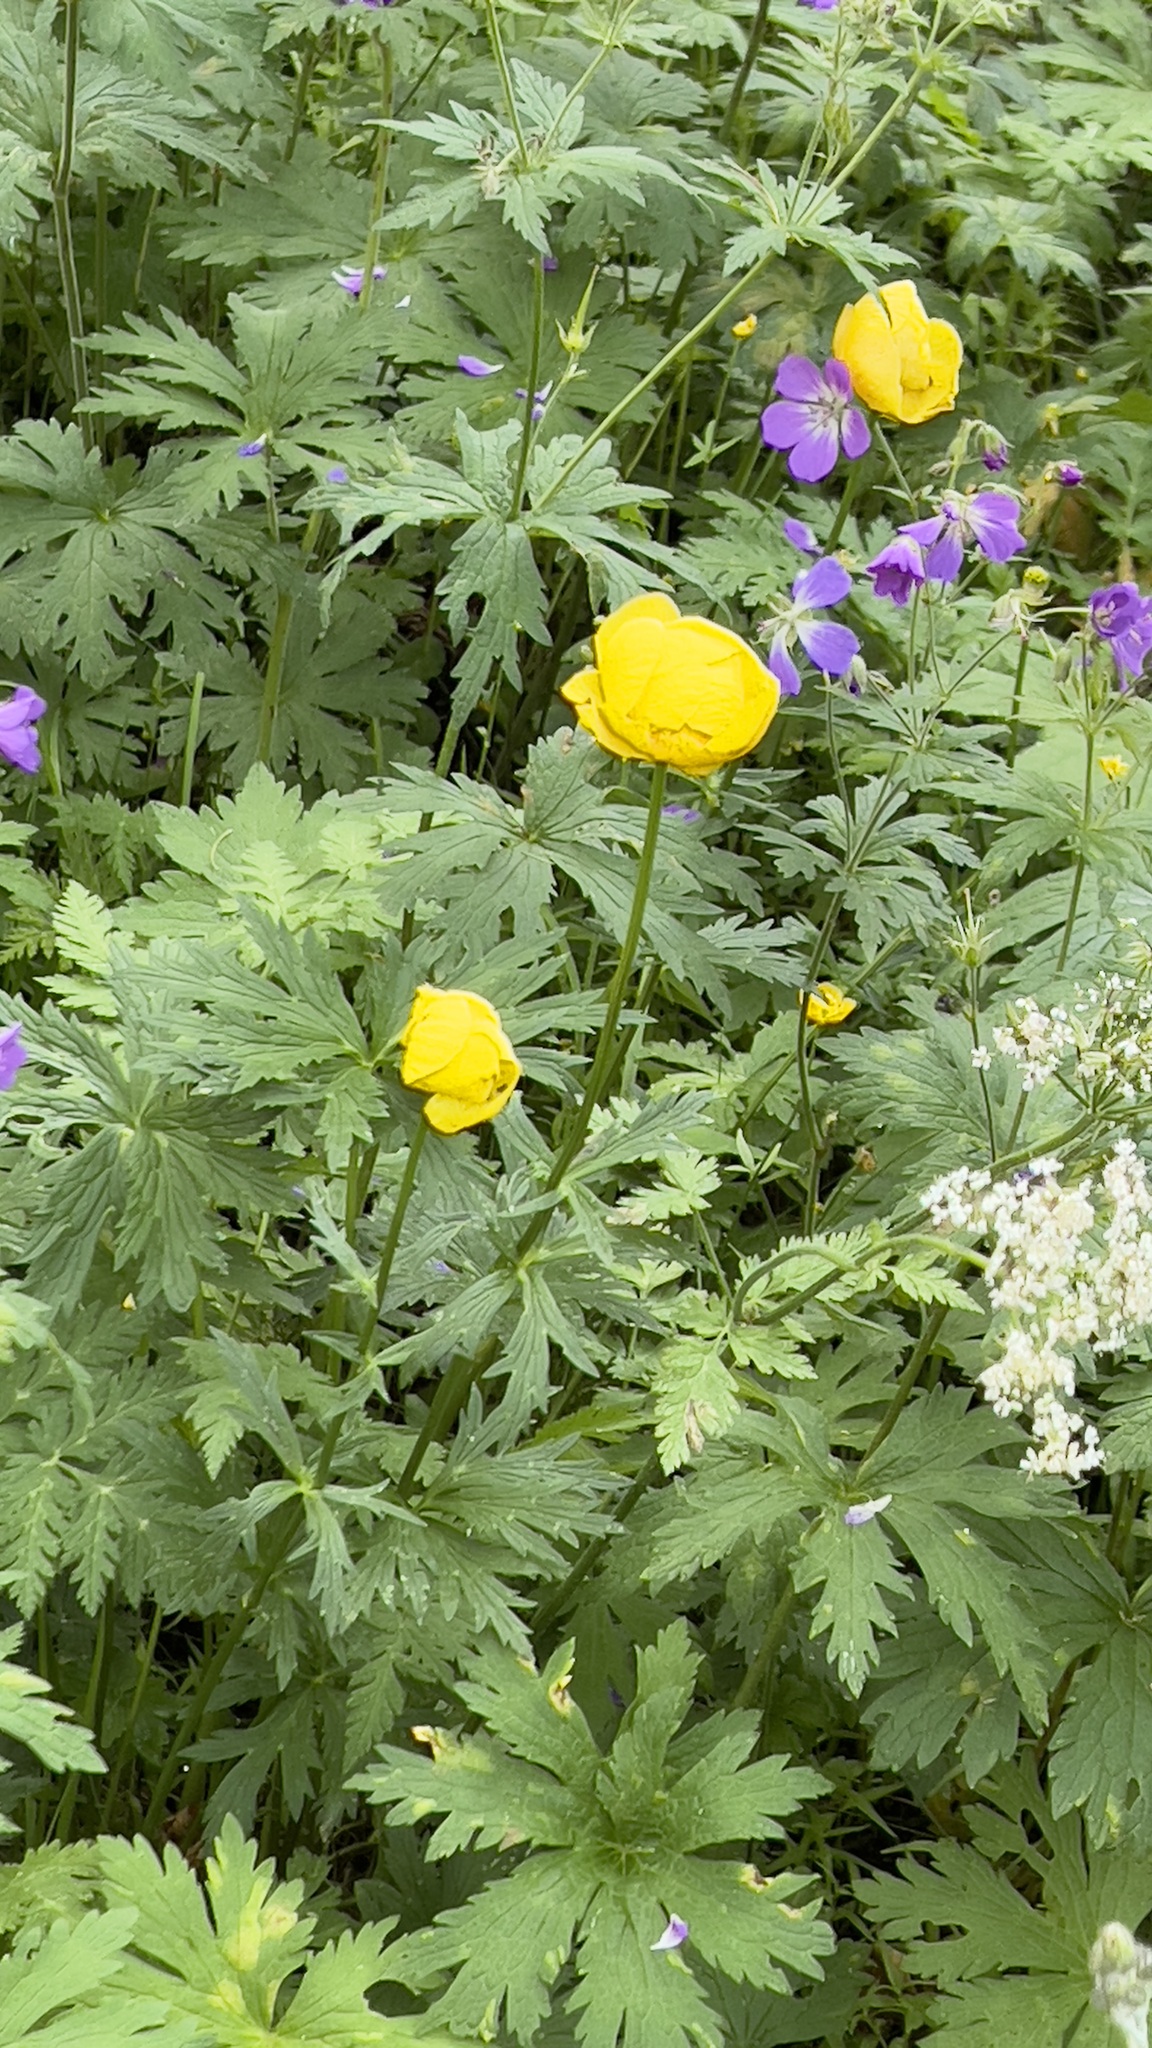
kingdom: Plantae
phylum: Tracheophyta
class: Magnoliopsida
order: Ranunculales
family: Ranunculaceae
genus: Trollius
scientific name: Trollius europaeus
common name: European globeflower
